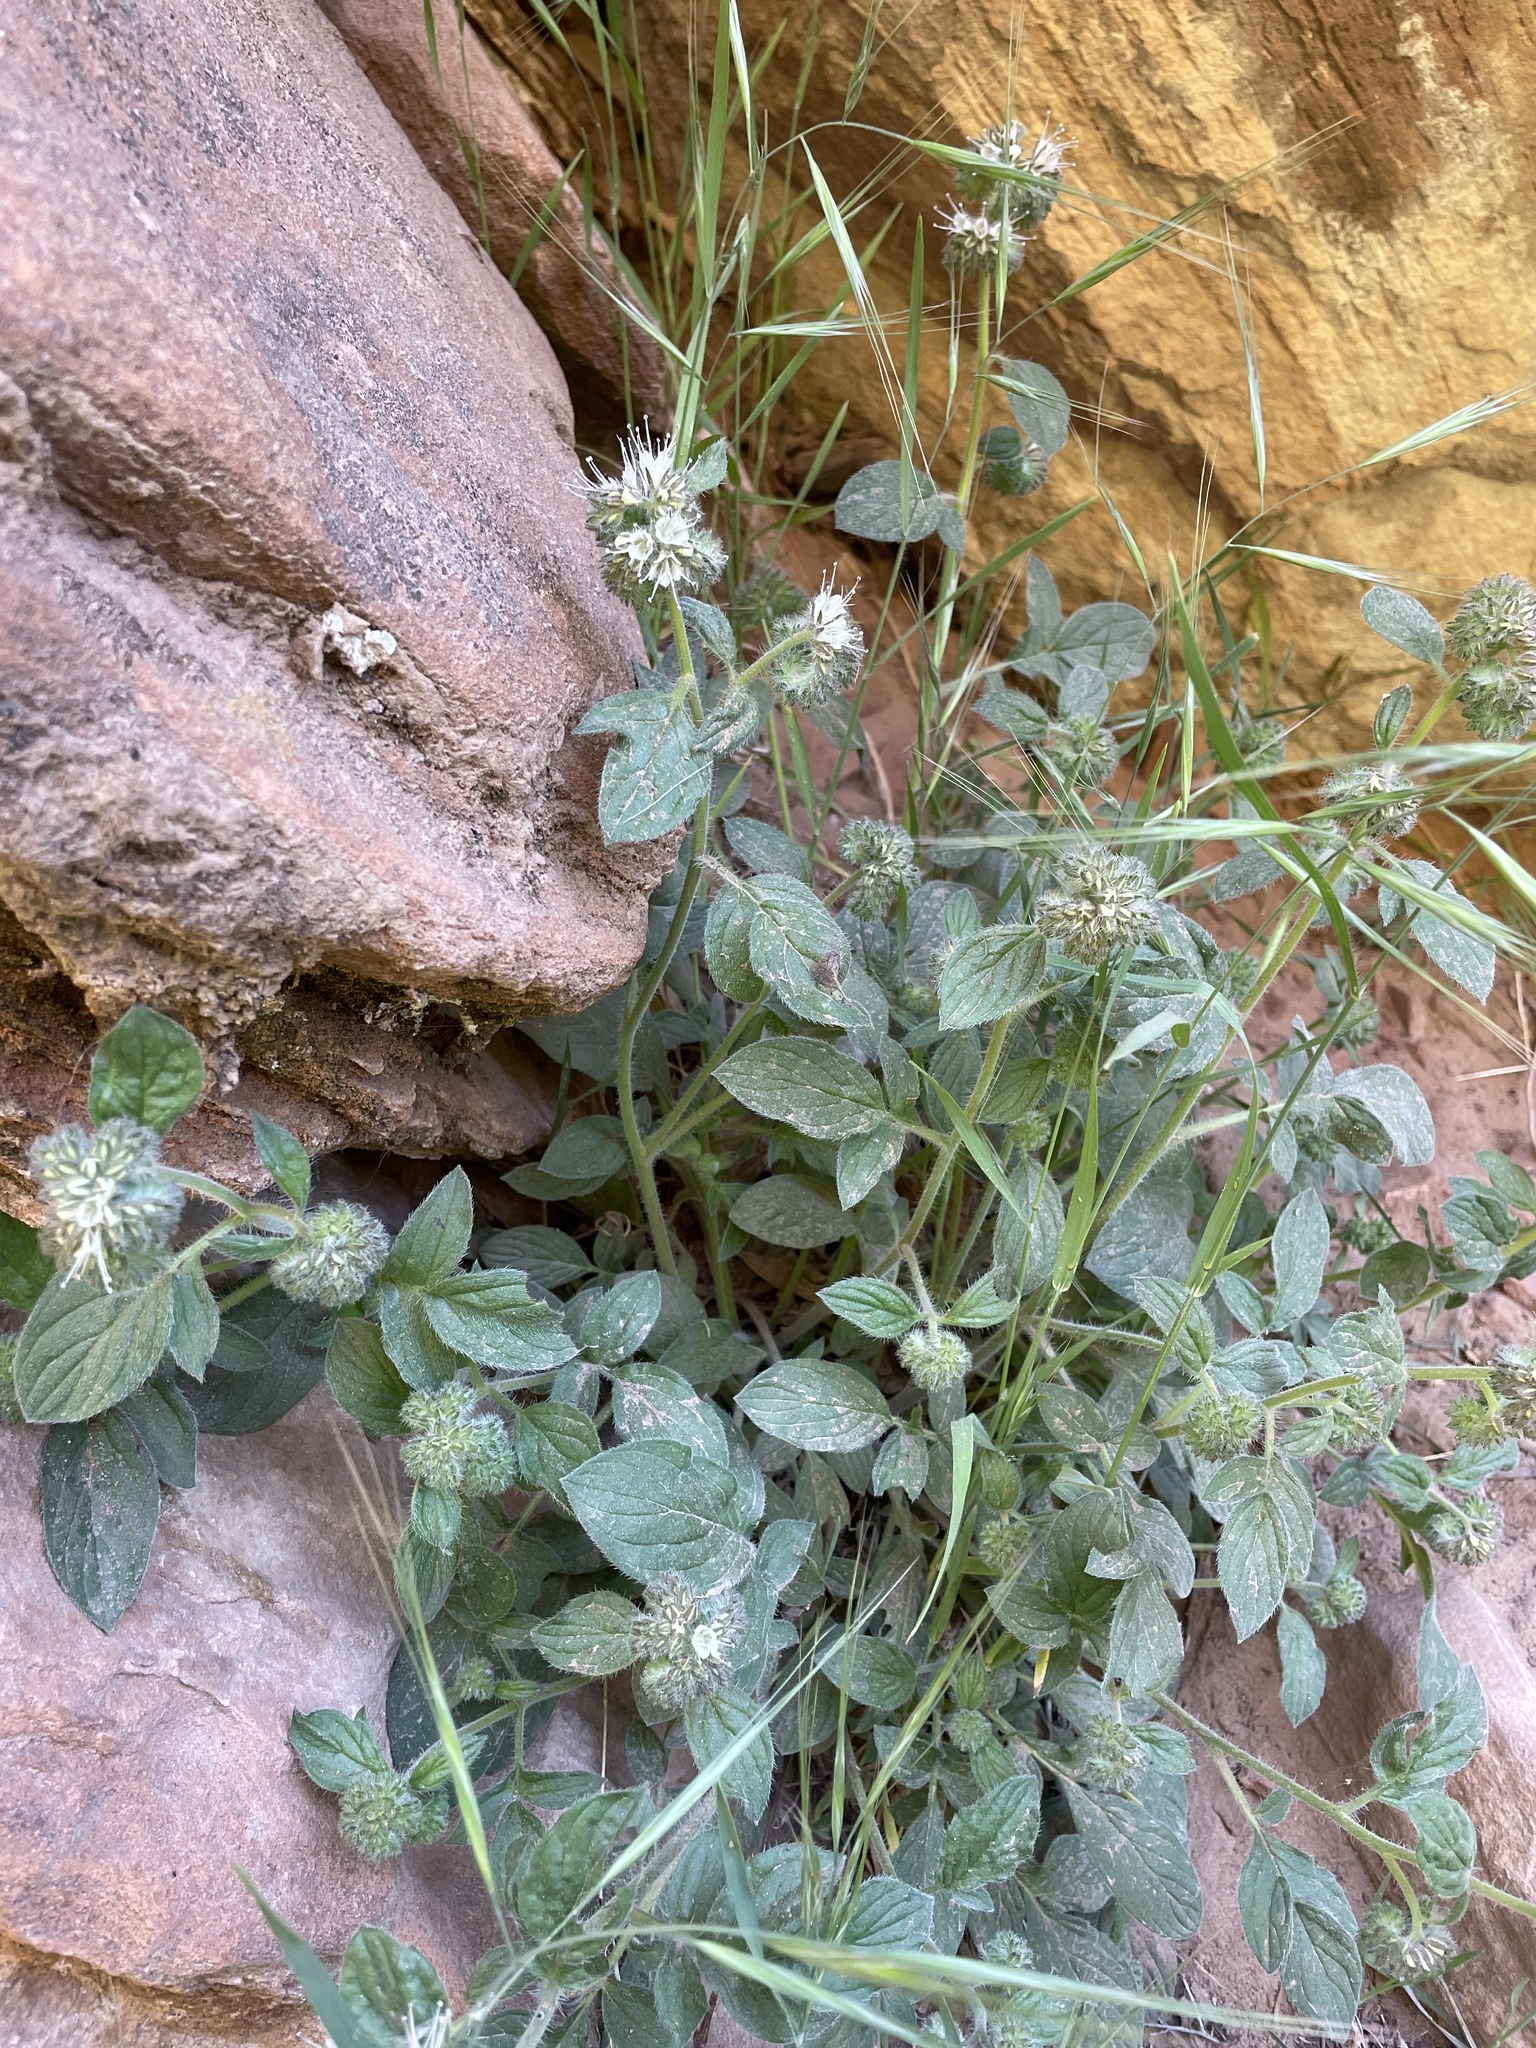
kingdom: Plantae
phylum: Tracheophyta
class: Magnoliopsida
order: Boraginales
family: Hydrophyllaceae
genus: Phacelia
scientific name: Phacelia heterophylla
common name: Variable-leaved phacelia
